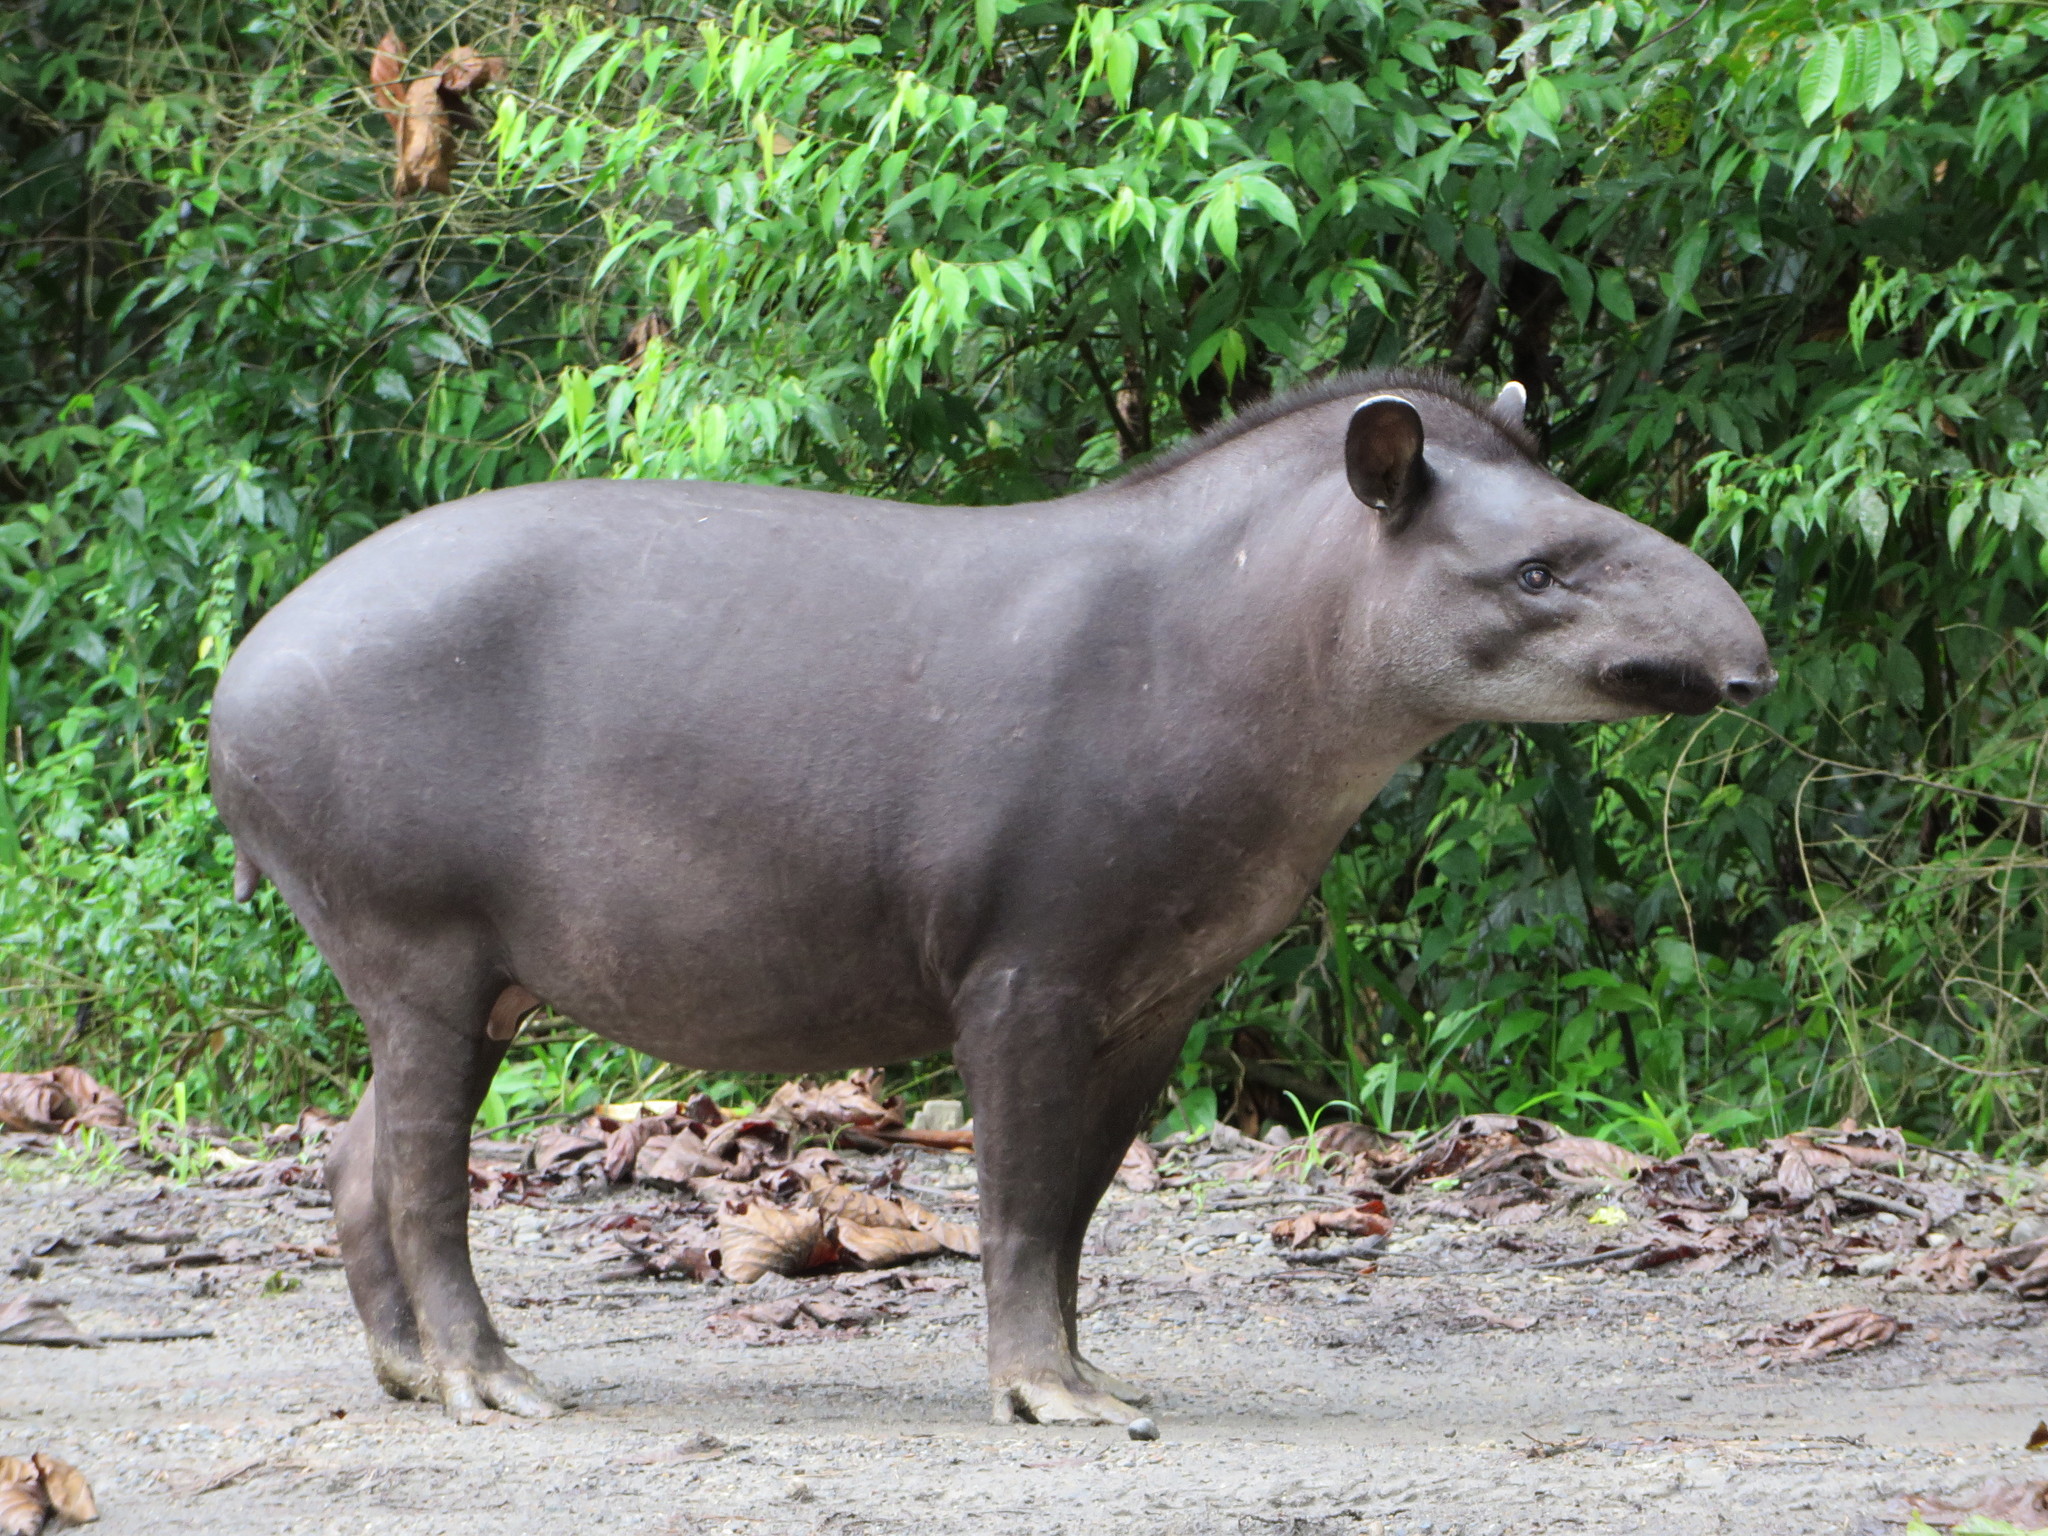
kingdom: Animalia
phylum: Chordata
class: Mammalia
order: Perissodactyla
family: Tapiridae
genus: Tapirus
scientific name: Tapirus terrestris
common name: Brazilian tapir
